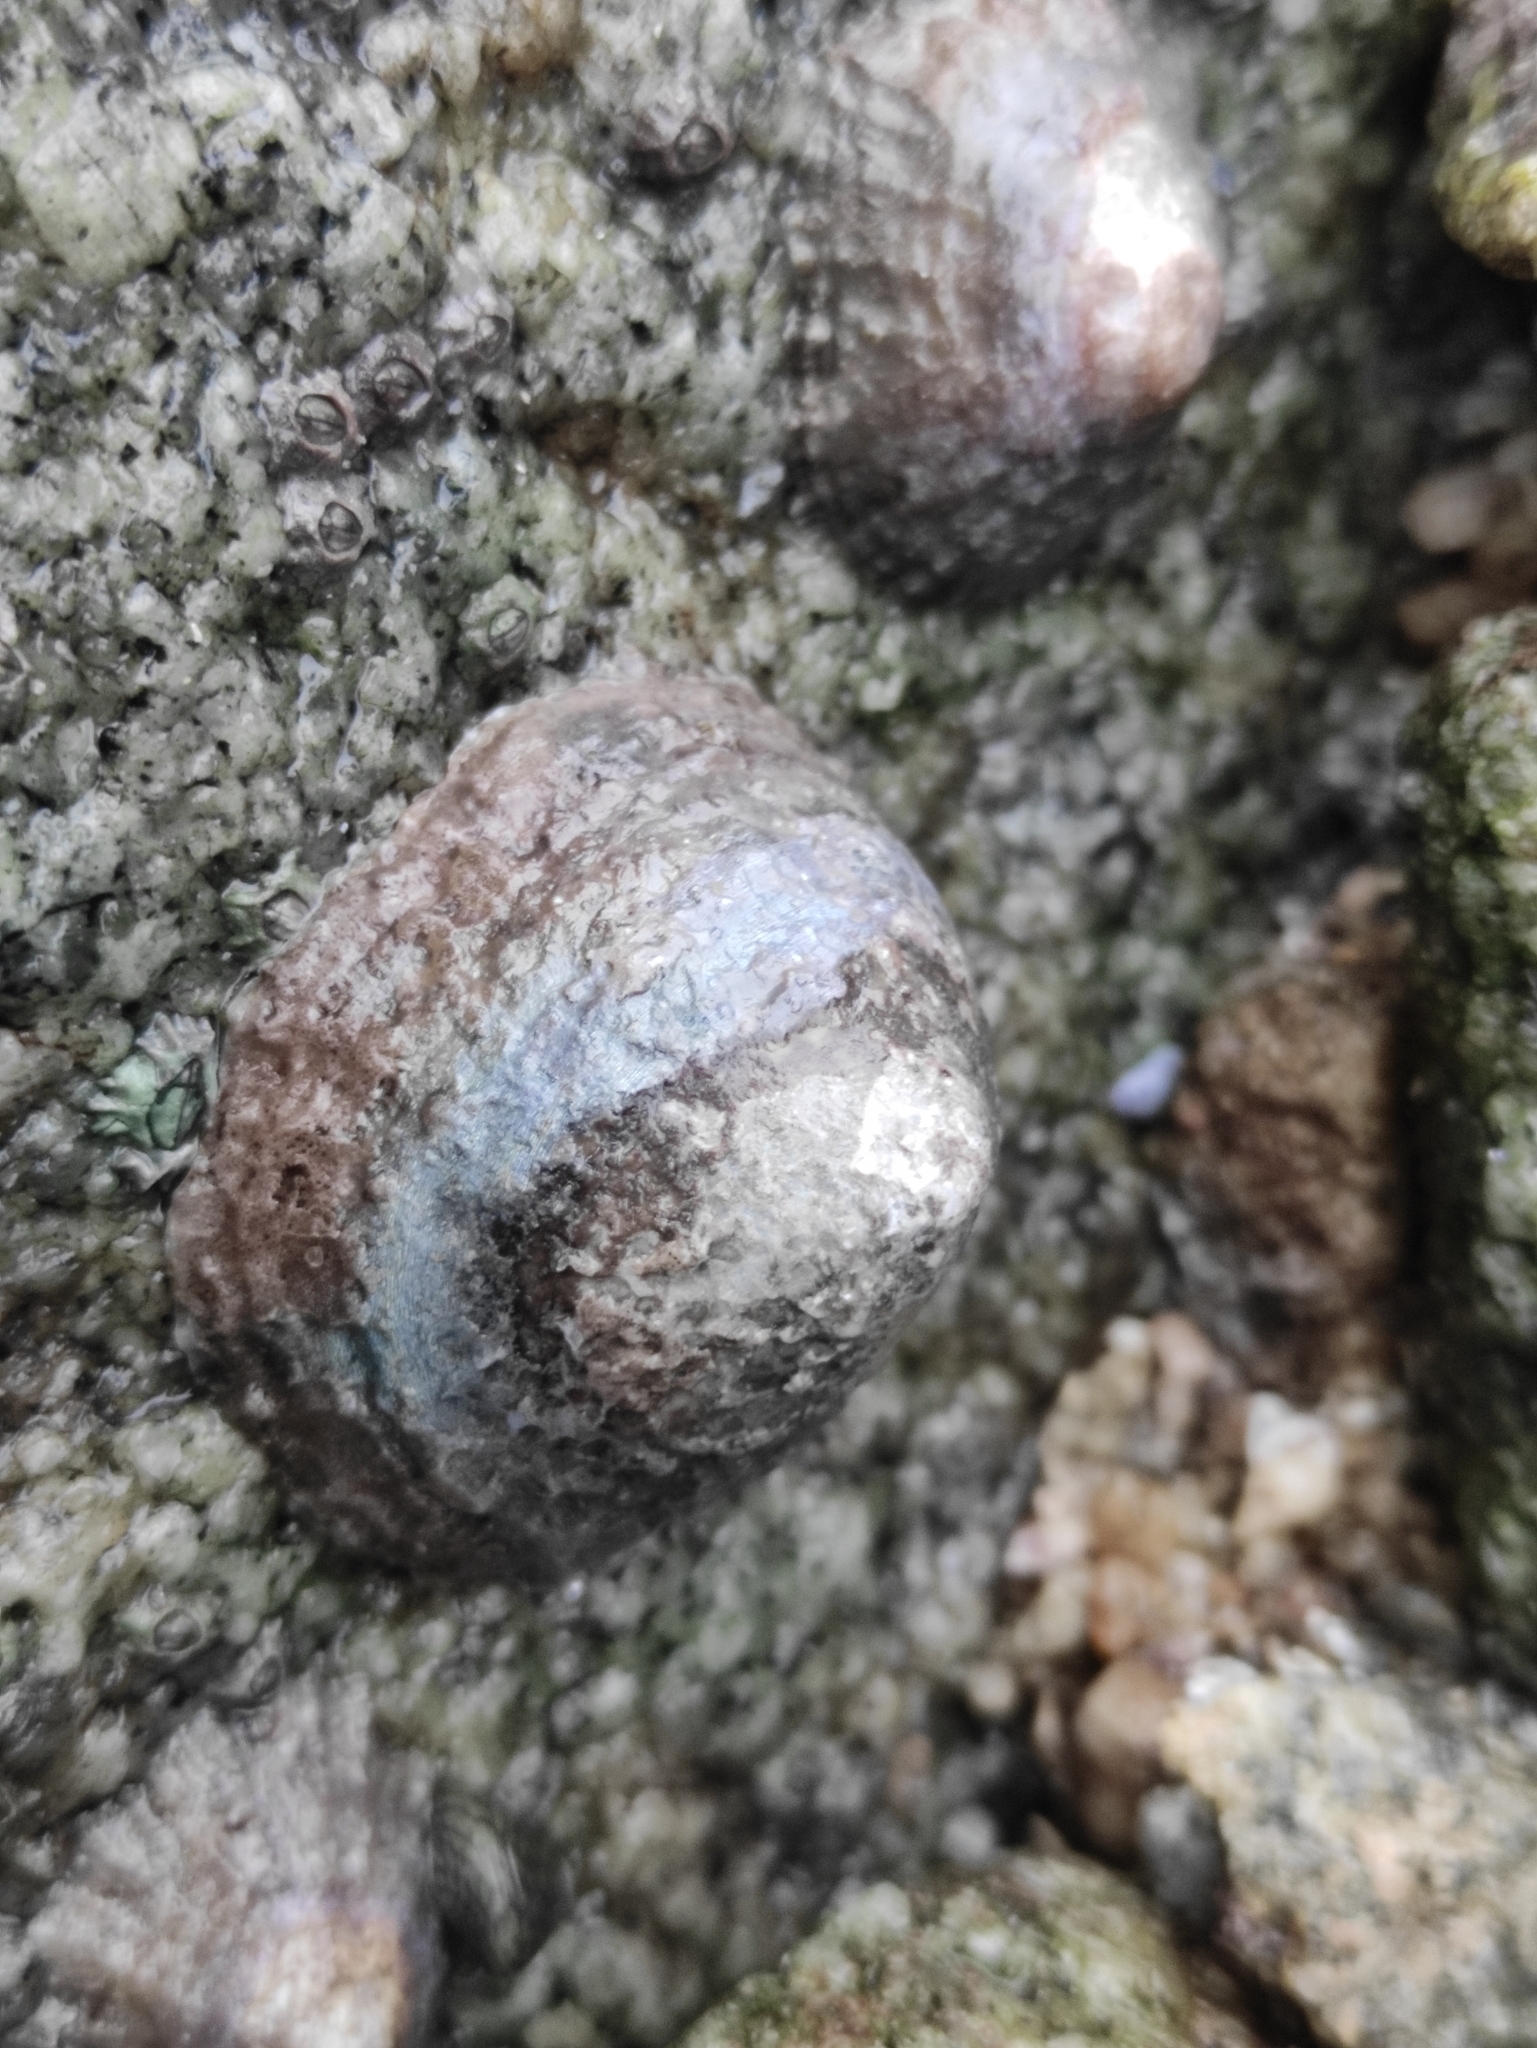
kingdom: Animalia
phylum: Mollusca
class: Gastropoda
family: Patellidae
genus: Patella
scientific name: Patella vulgata
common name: Common limpet
